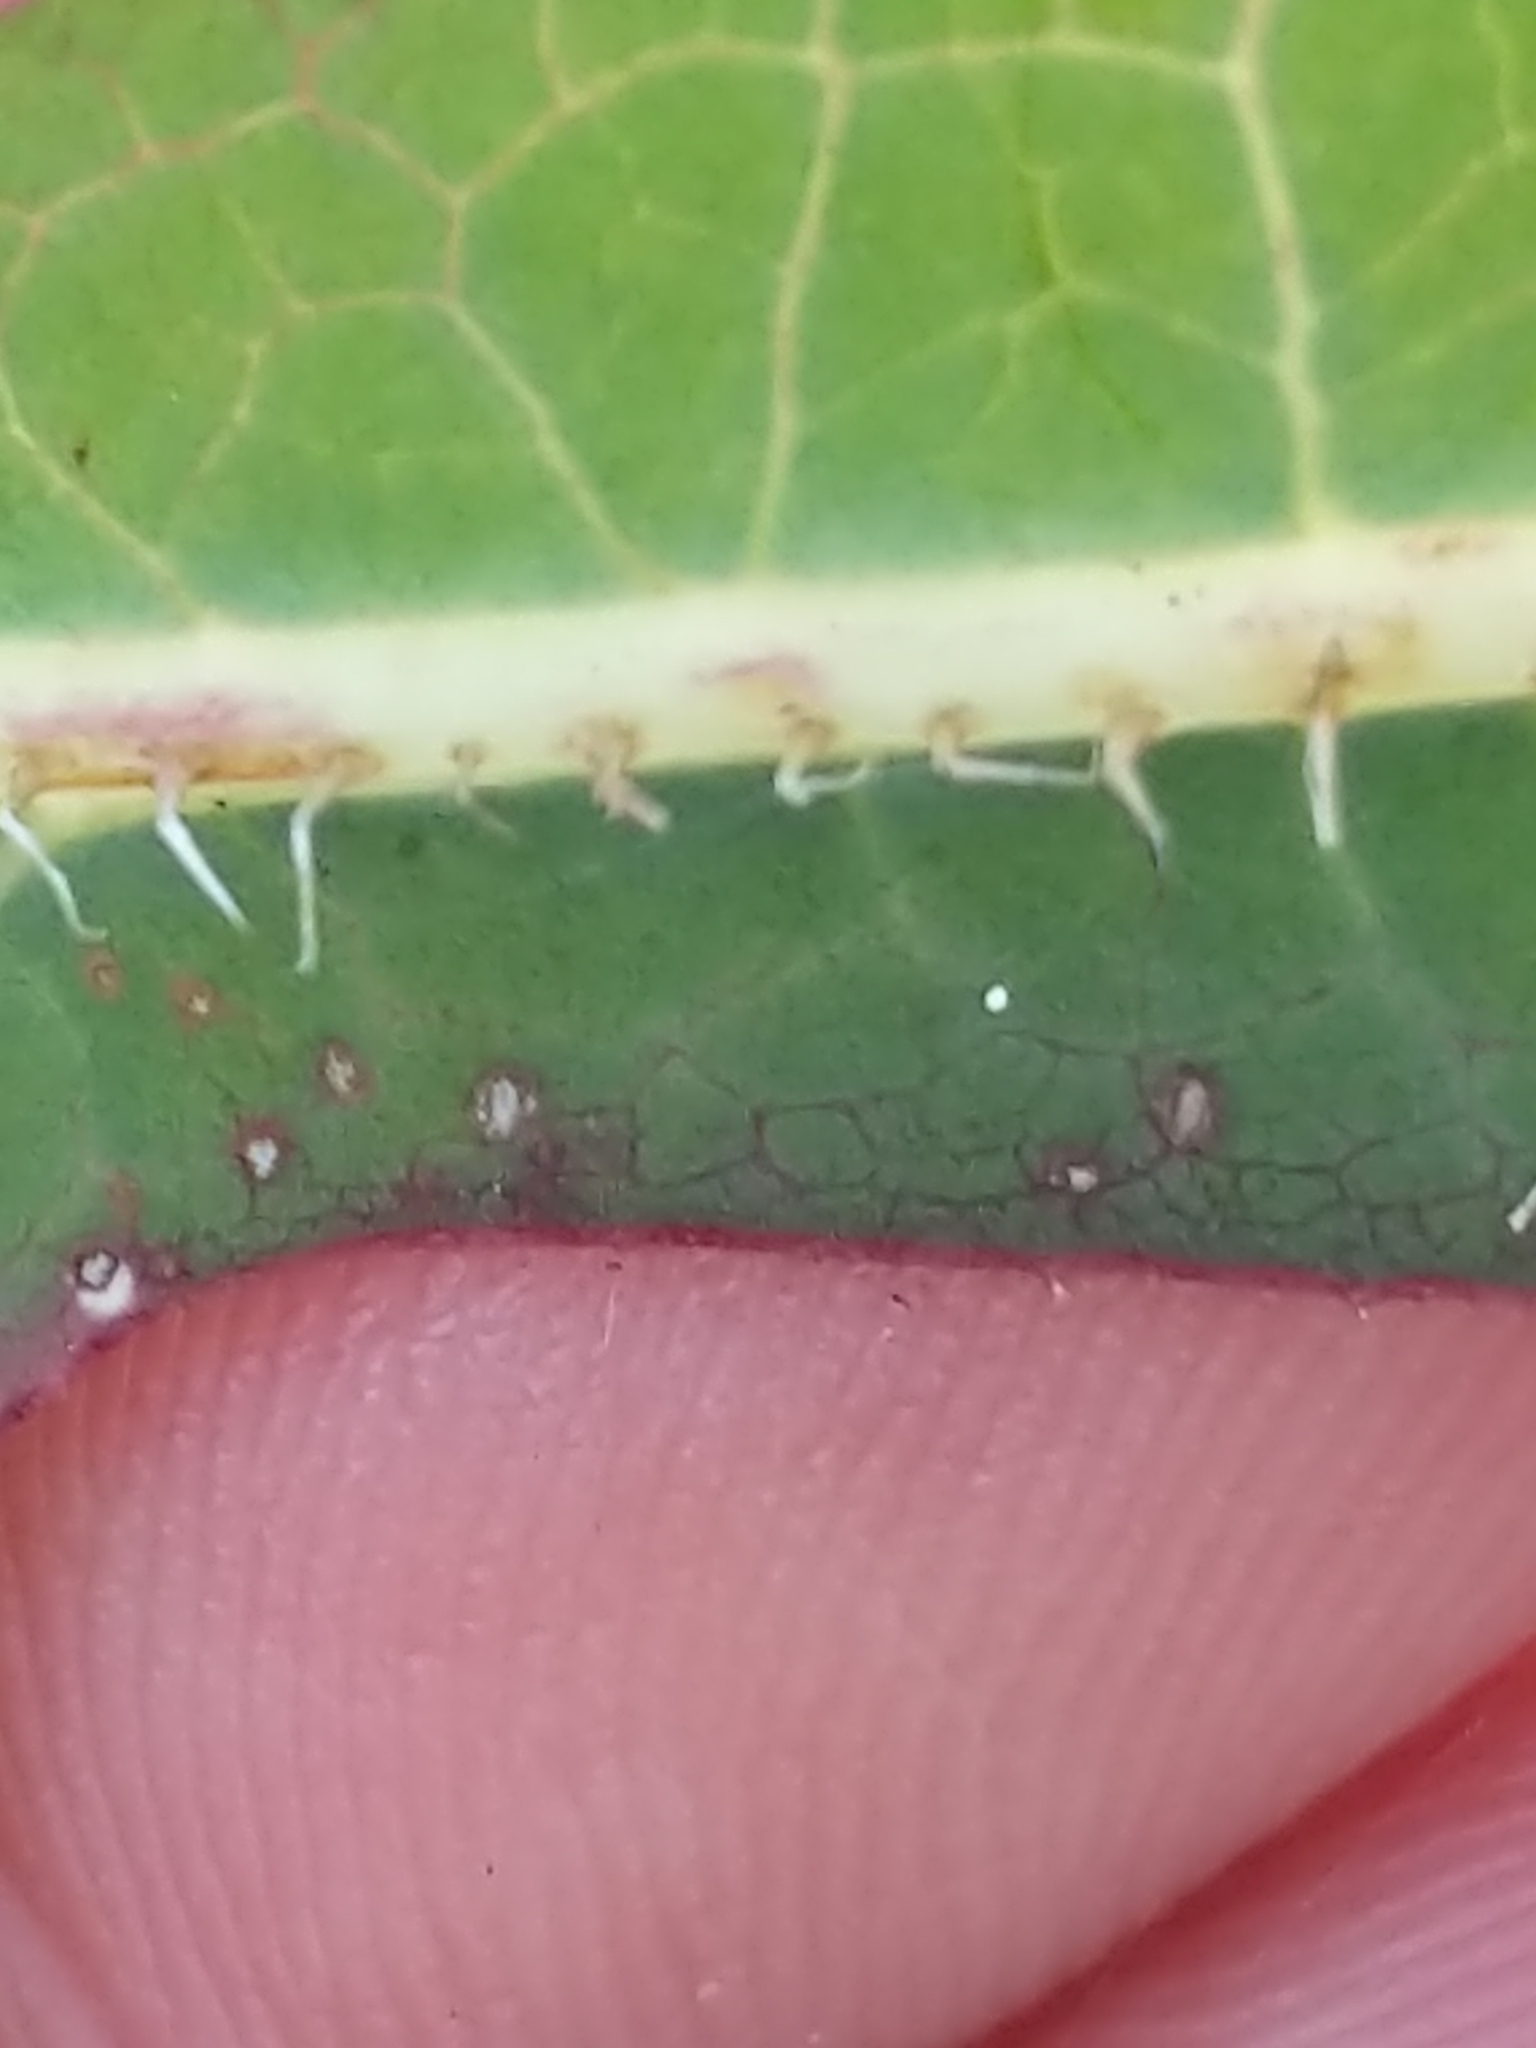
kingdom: Plantae
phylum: Tracheophyta
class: Magnoliopsida
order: Asterales
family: Asteraceae
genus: Lactuca
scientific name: Lactuca serriola
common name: Prickly lettuce
